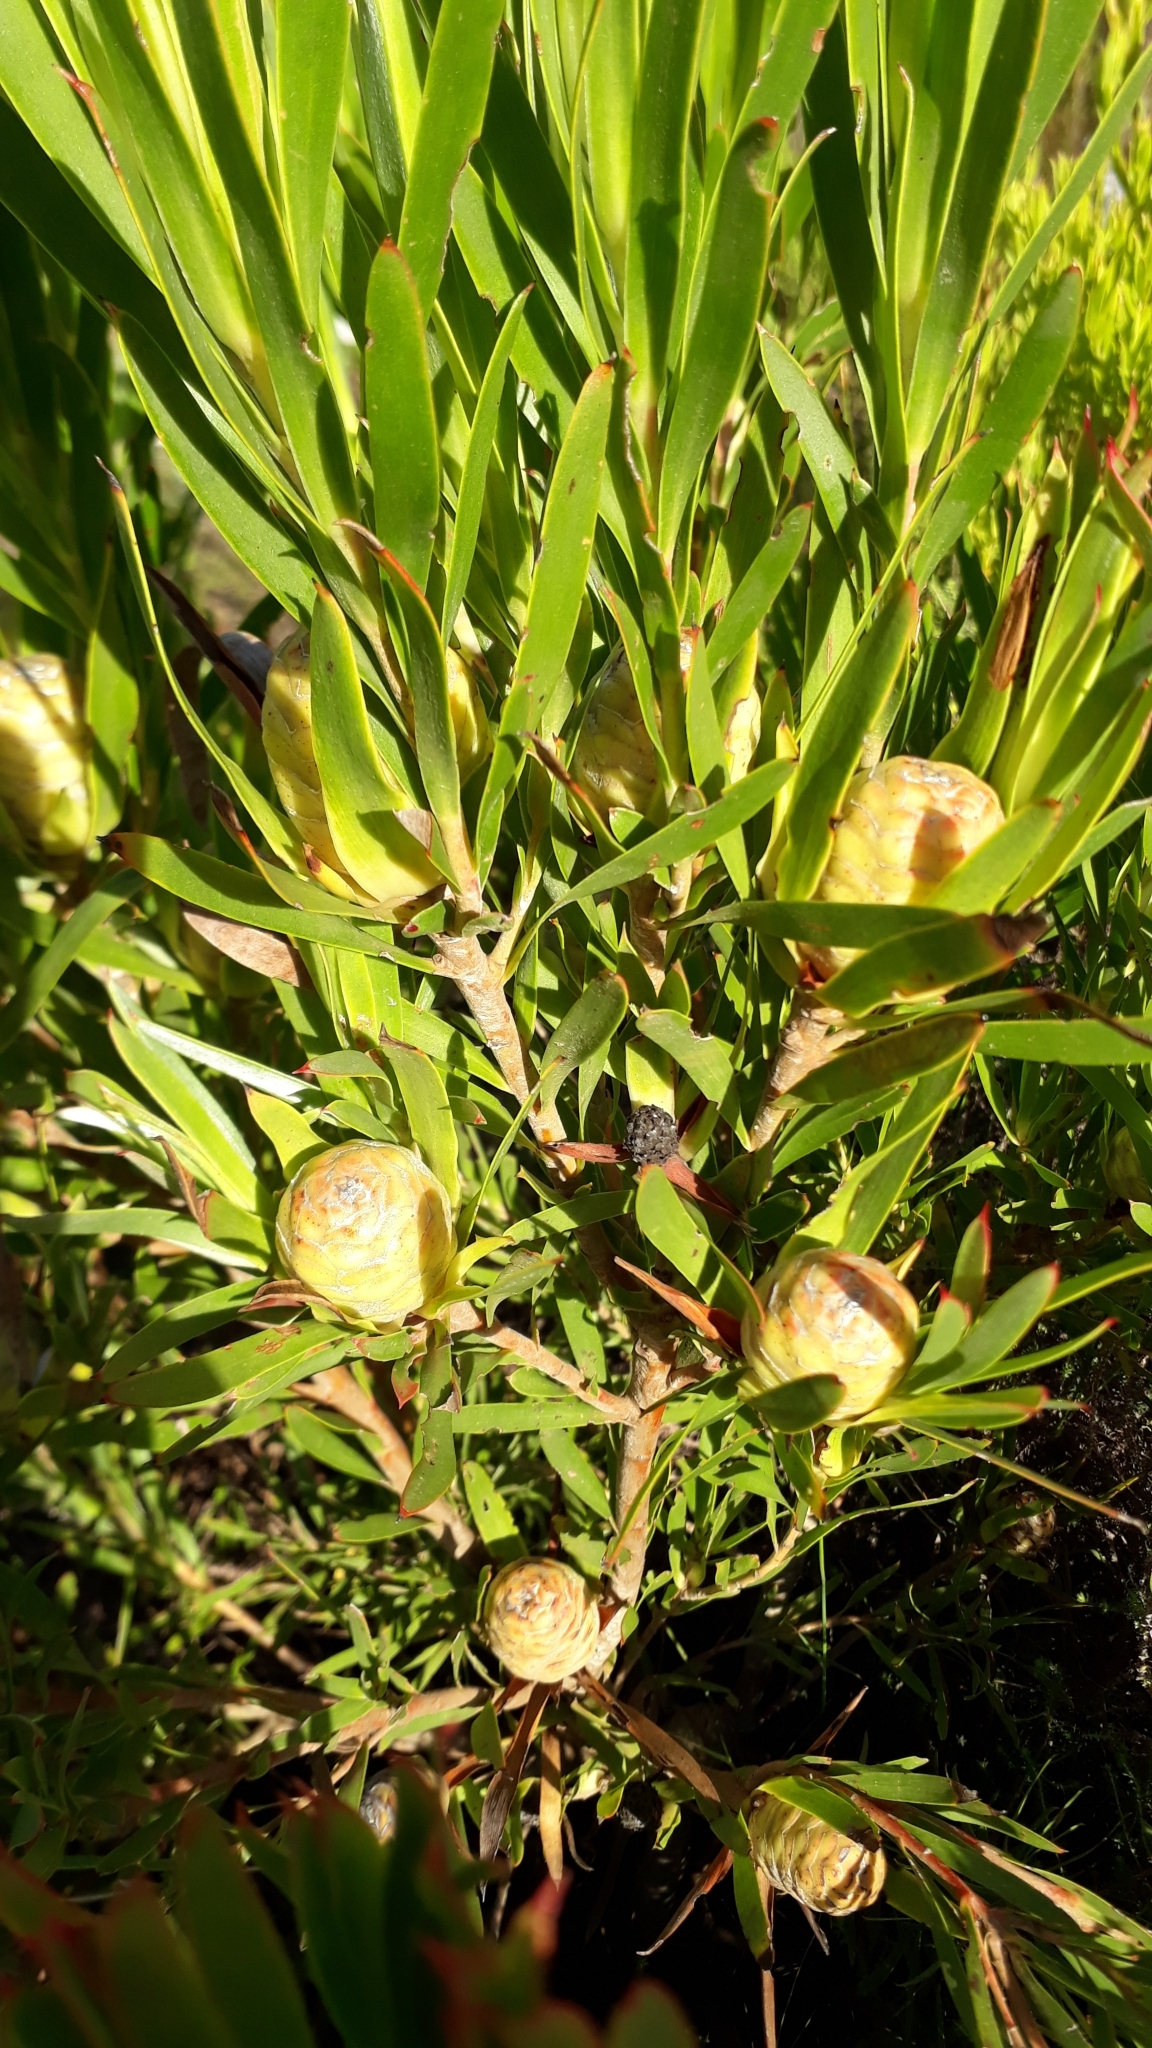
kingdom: Plantae
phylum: Tracheophyta
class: Magnoliopsida
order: Proteales
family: Proteaceae
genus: Leucadendron
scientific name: Leucadendron xanthoconus
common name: Sickle-leaf conebush
